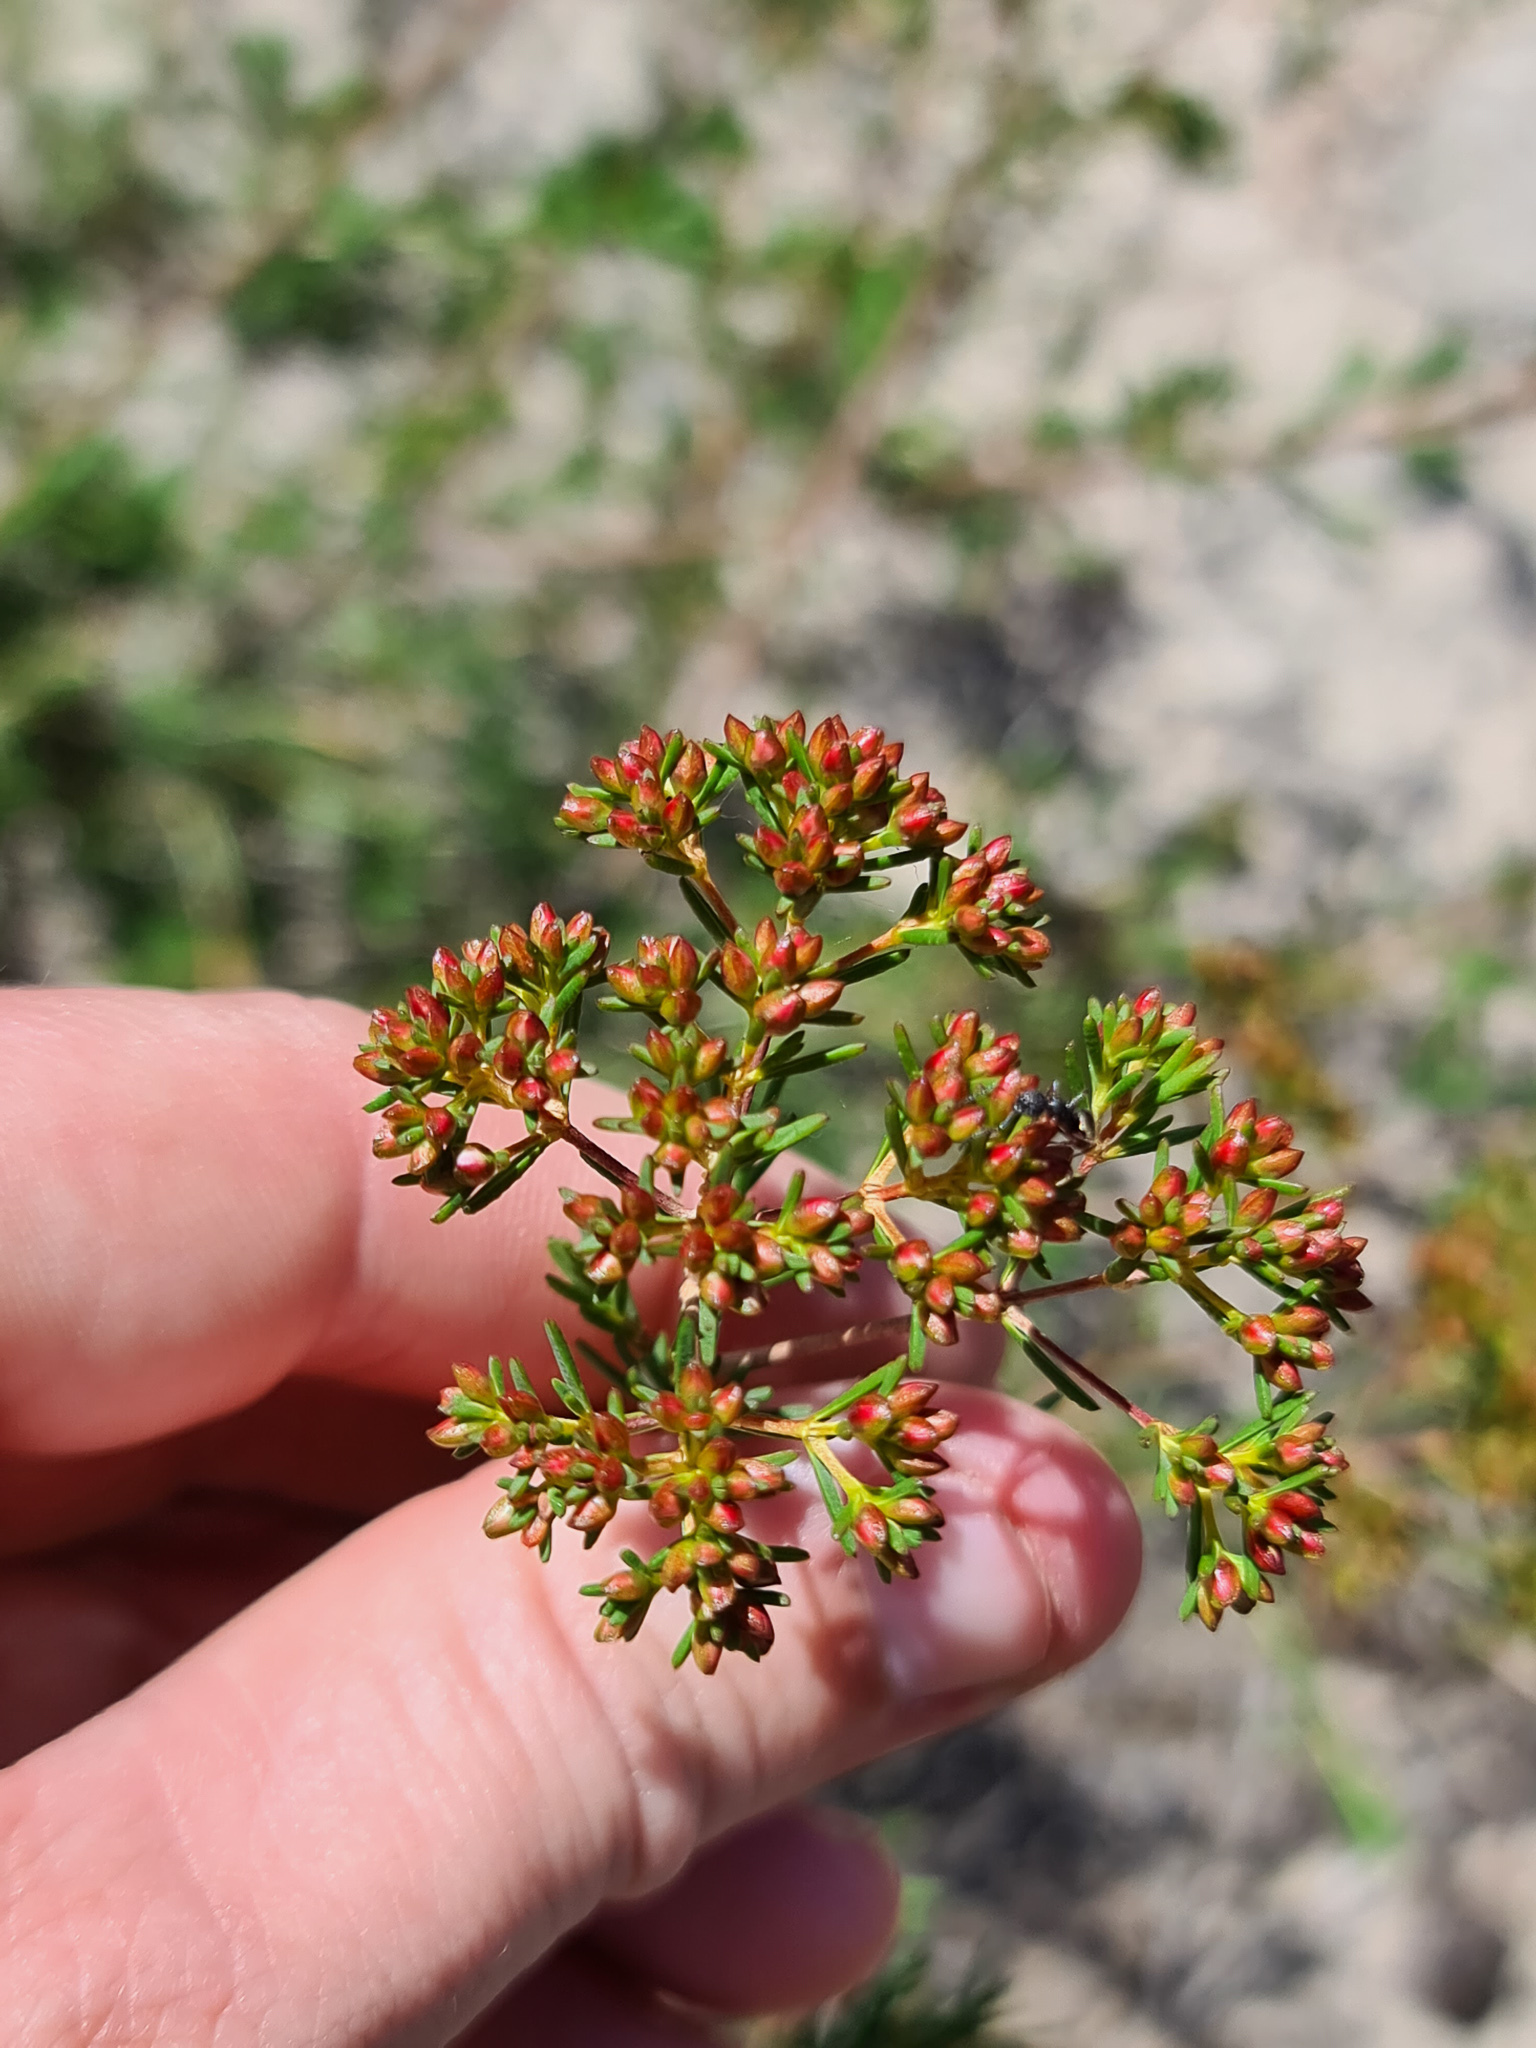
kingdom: Plantae
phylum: Tracheophyta
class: Magnoliopsida
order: Myrtales
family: Myrtaceae
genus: Verticordia
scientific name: Verticordia densiflora
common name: Compact feather-flower
